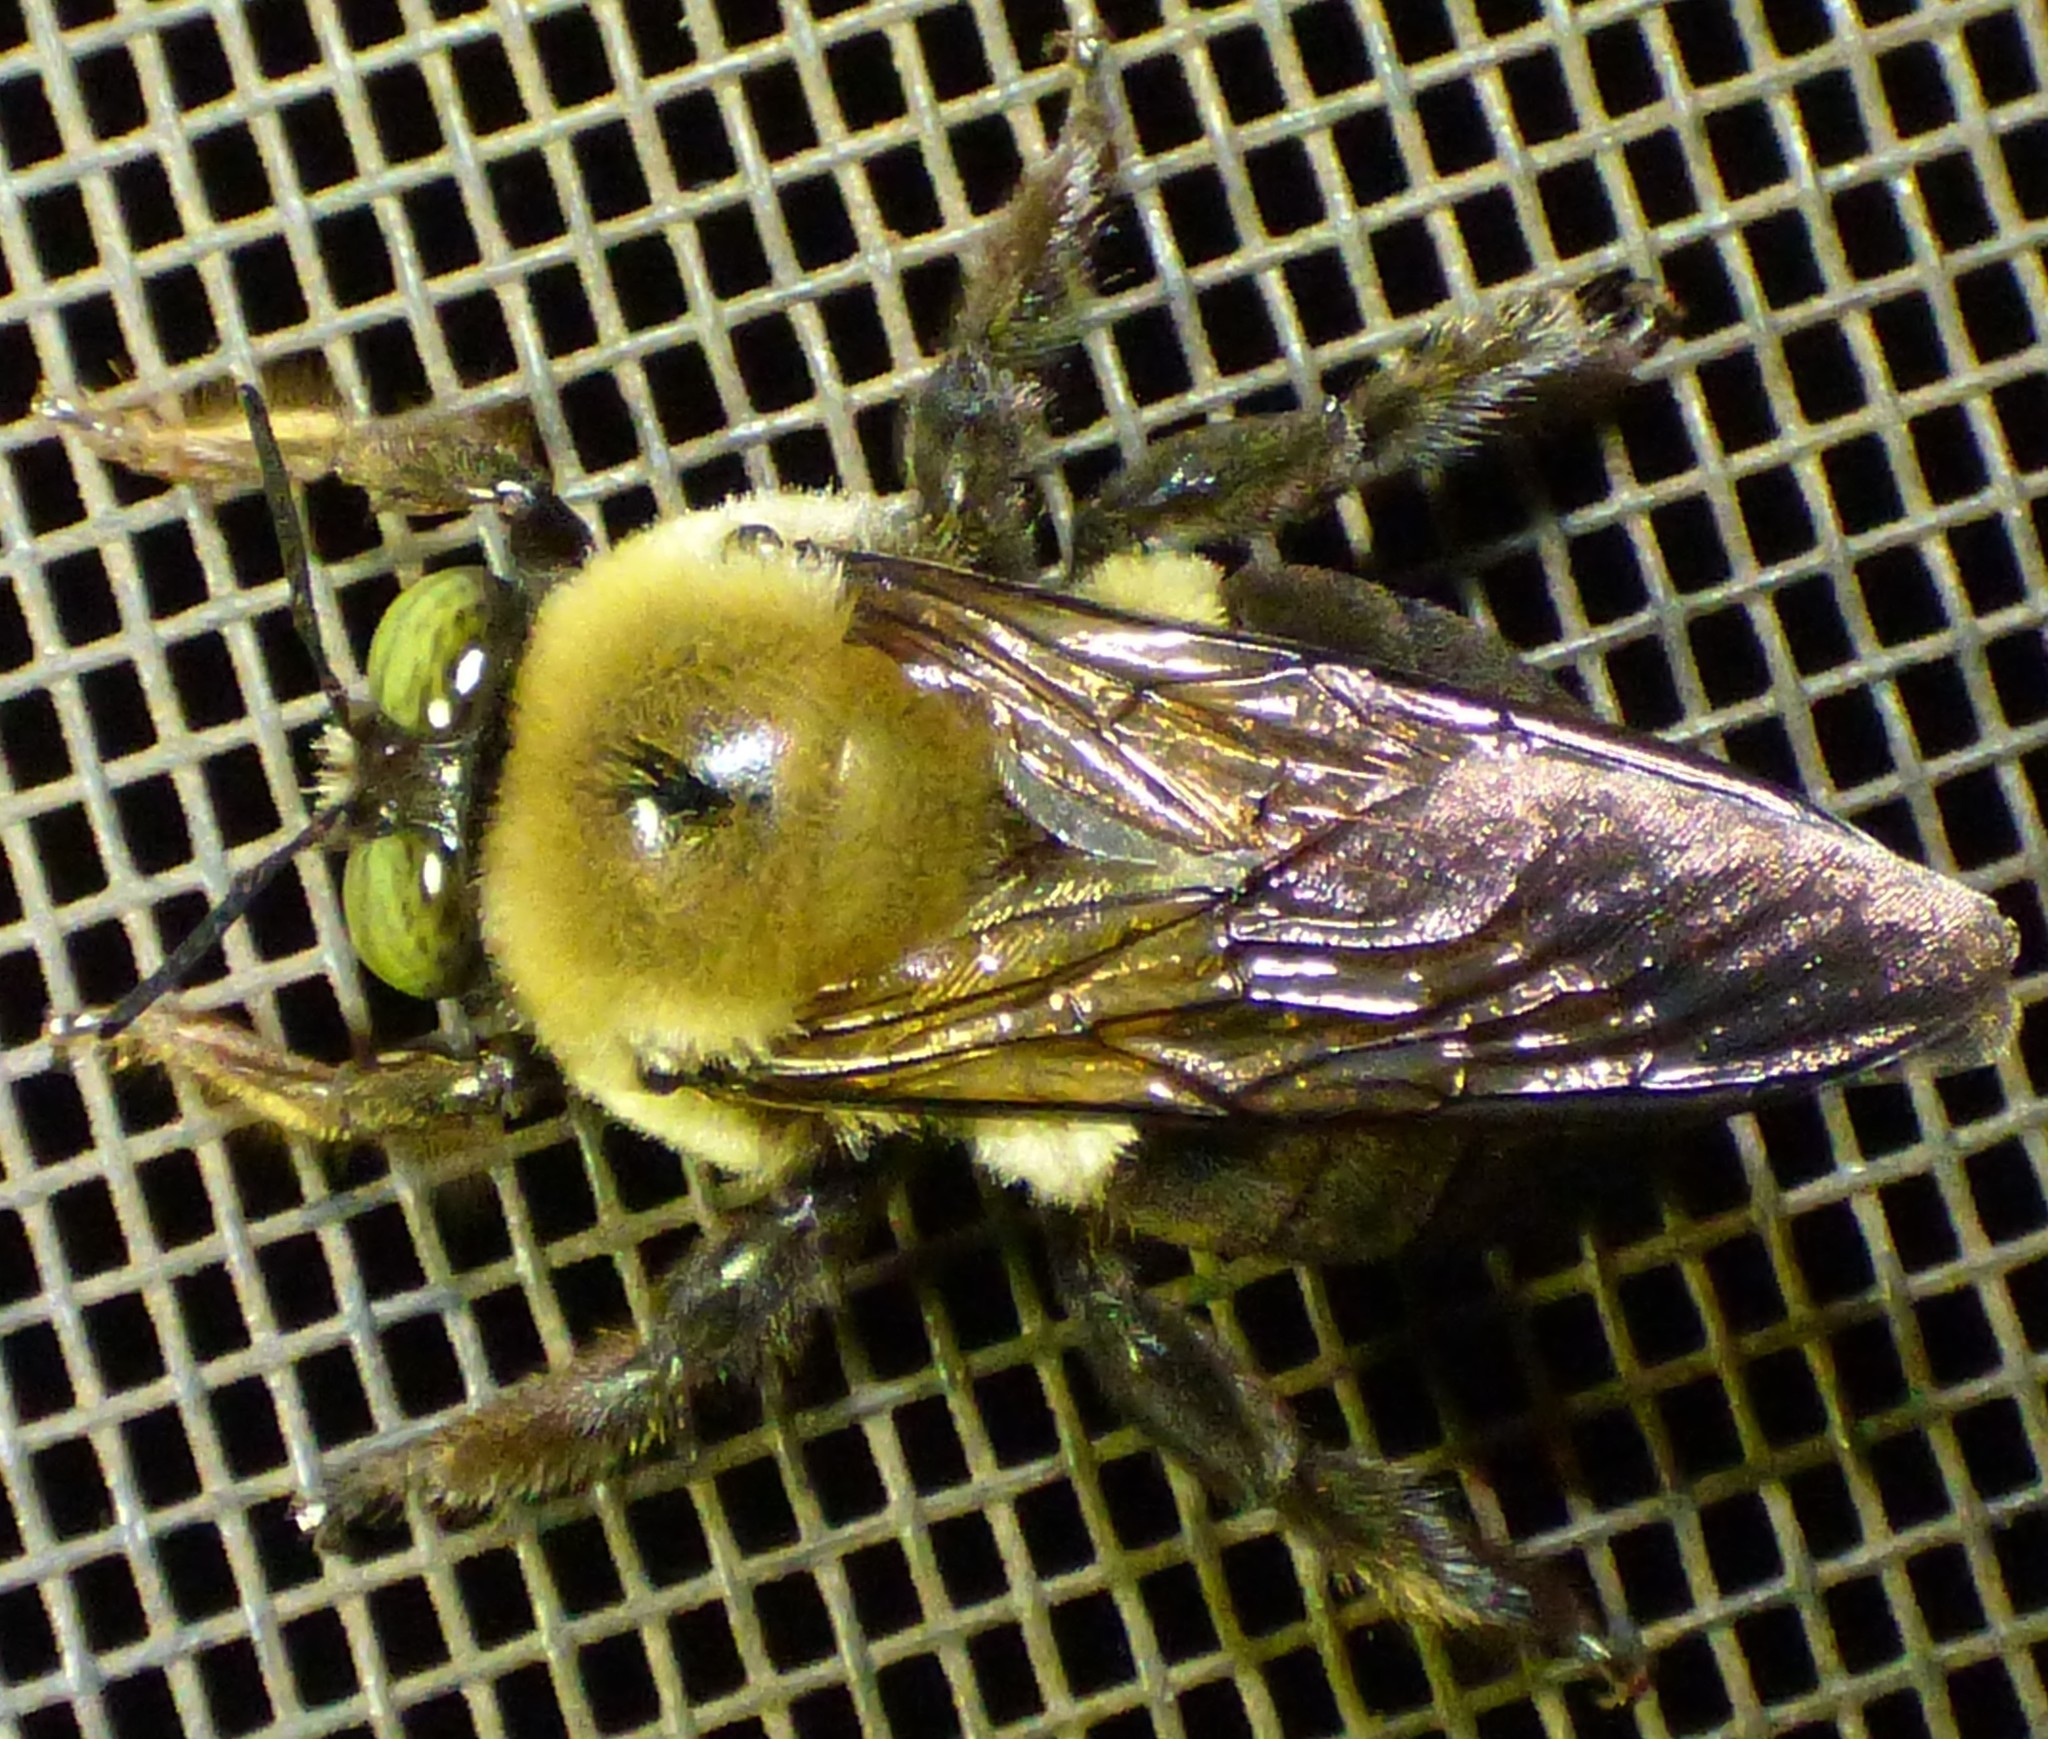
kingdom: Animalia
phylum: Arthropoda
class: Insecta
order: Hymenoptera
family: Apidae
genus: Xylocopa
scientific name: Xylocopa virginica
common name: Carpenter bee
